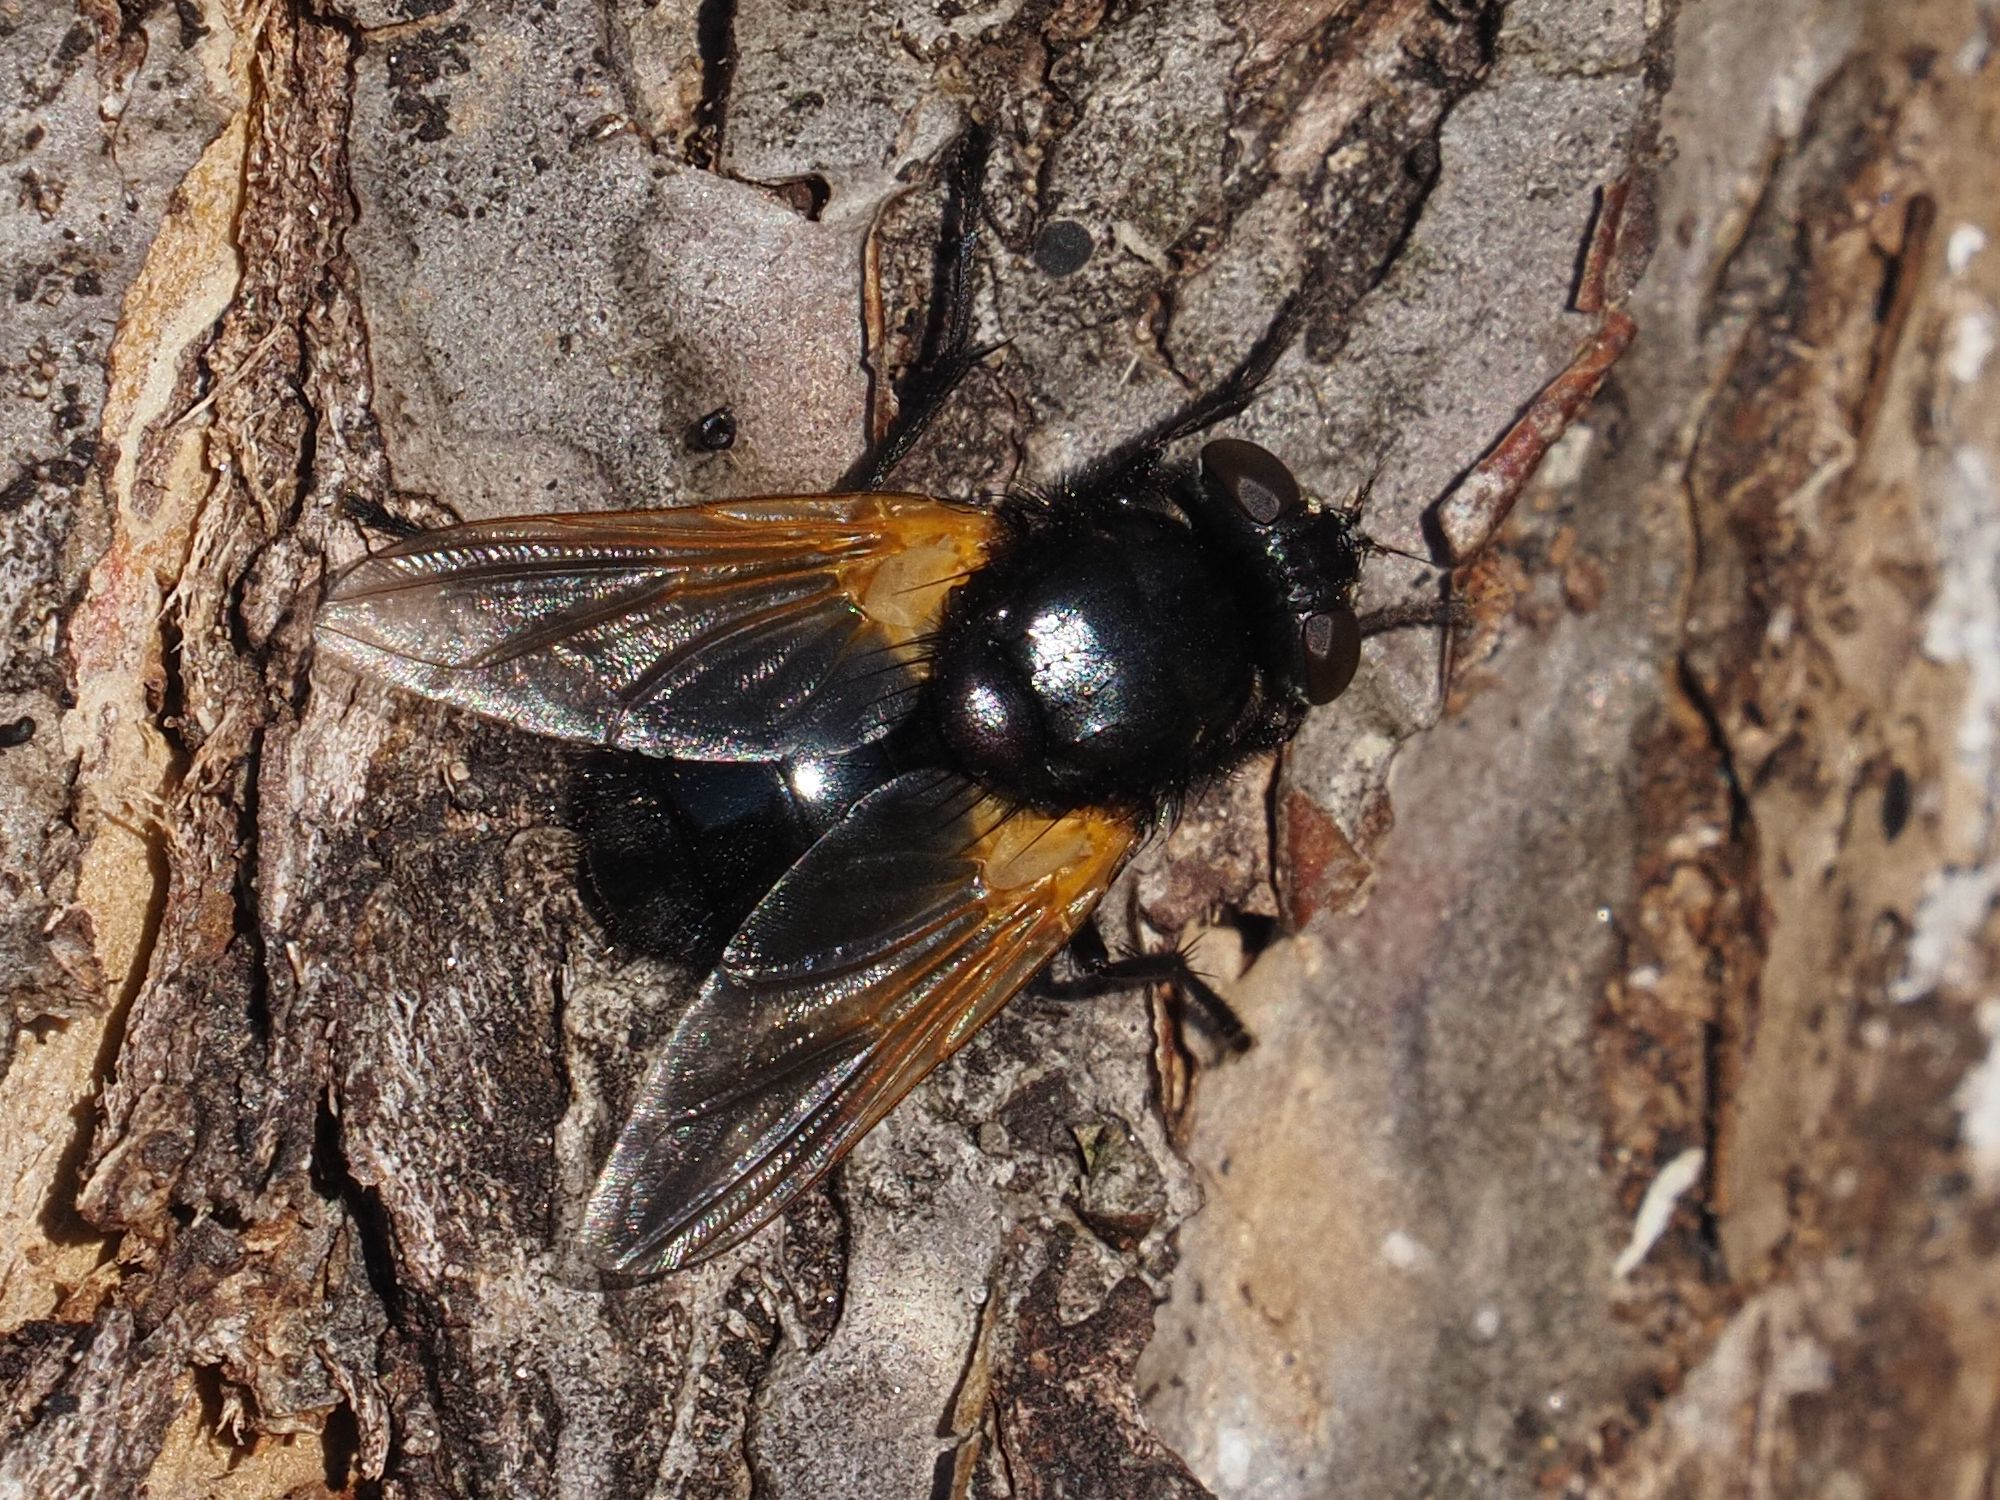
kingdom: Animalia
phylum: Arthropoda
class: Insecta
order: Diptera
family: Muscidae
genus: Mesembrina
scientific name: Mesembrina meridiana
